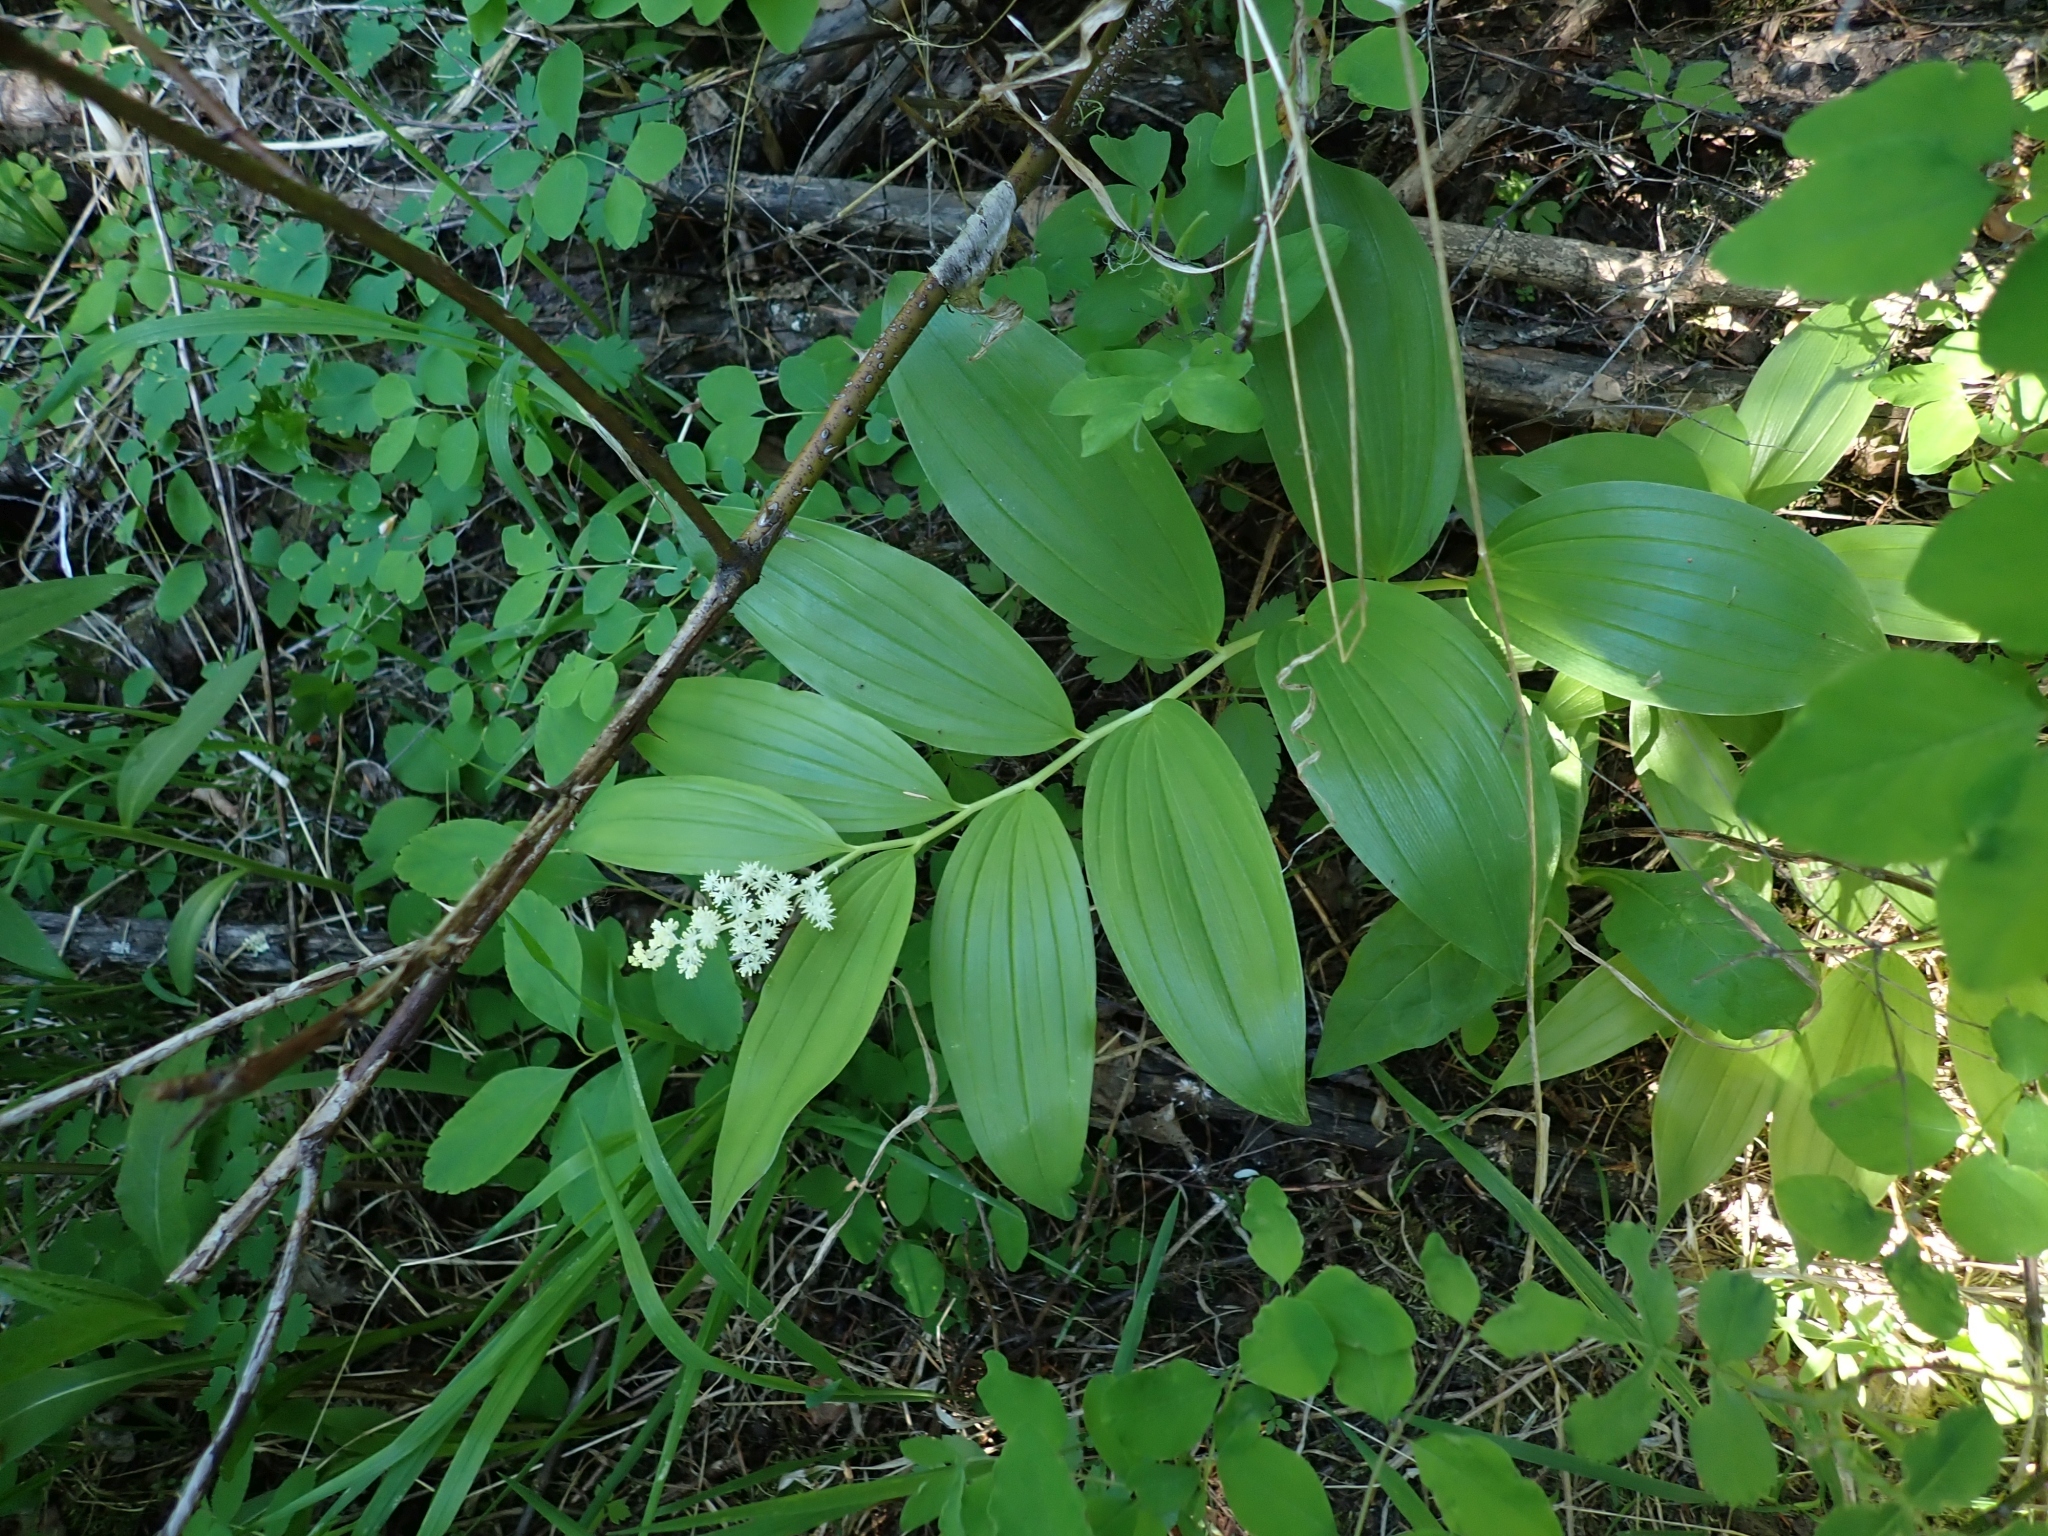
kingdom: Plantae
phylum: Tracheophyta
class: Liliopsida
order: Asparagales
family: Asparagaceae
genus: Maianthemum
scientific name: Maianthemum racemosum
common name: False spikenard
